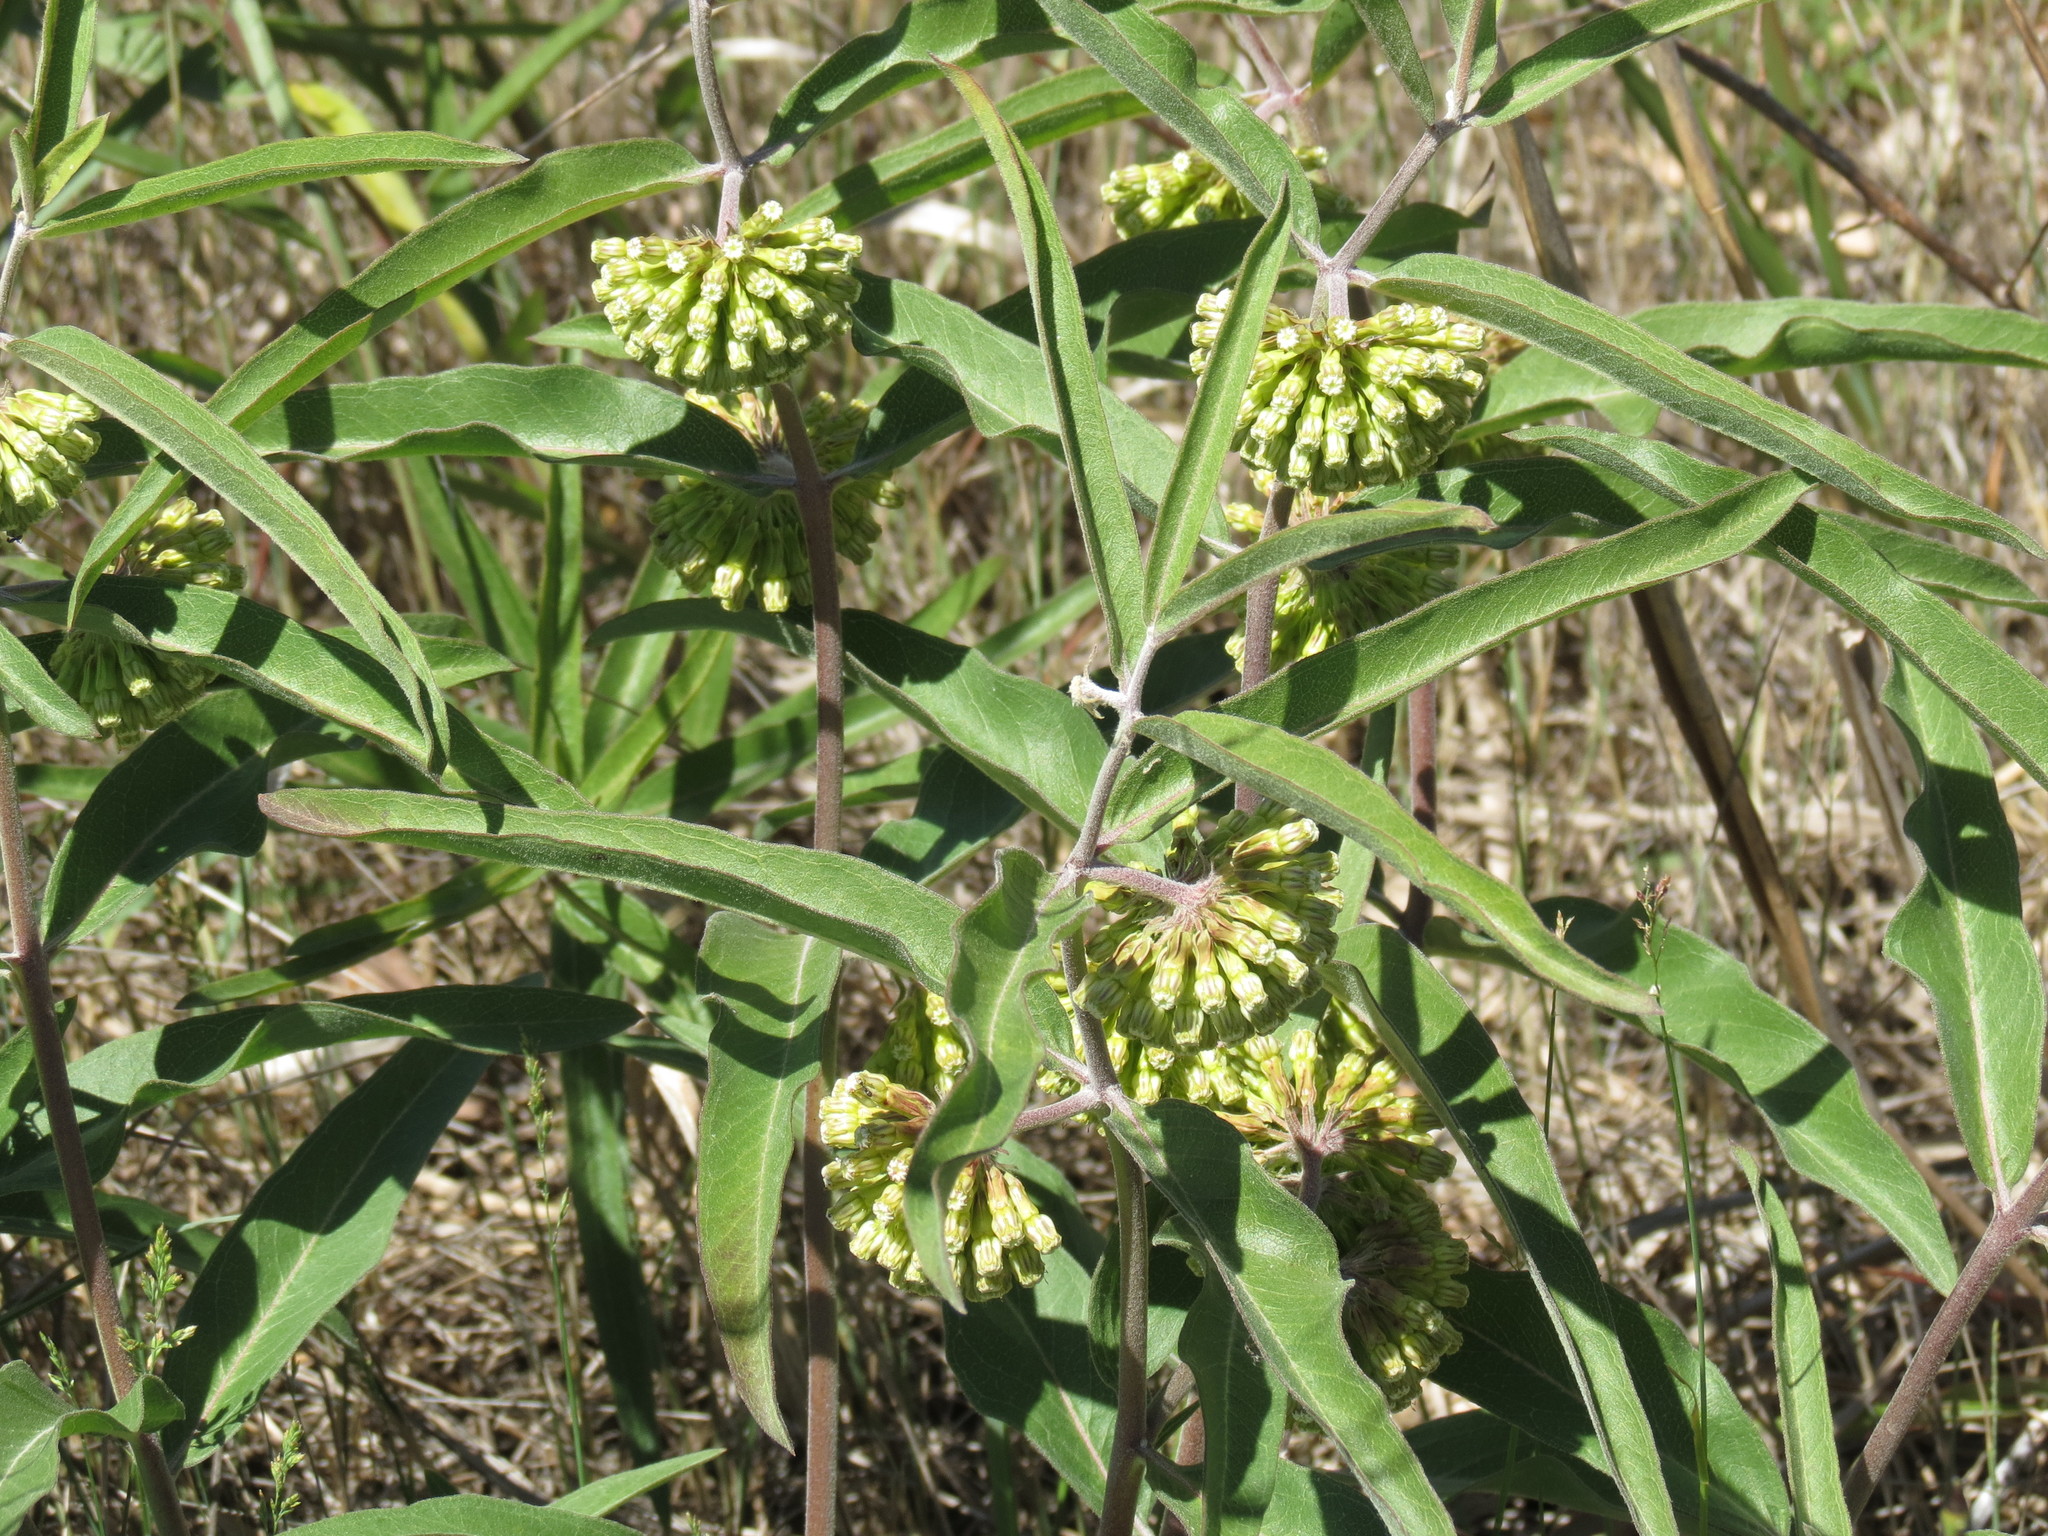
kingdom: Plantae
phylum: Tracheophyta
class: Magnoliopsida
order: Gentianales
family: Apocynaceae
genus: Asclepias
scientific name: Asclepias viridiflora
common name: Green comet milkweed
